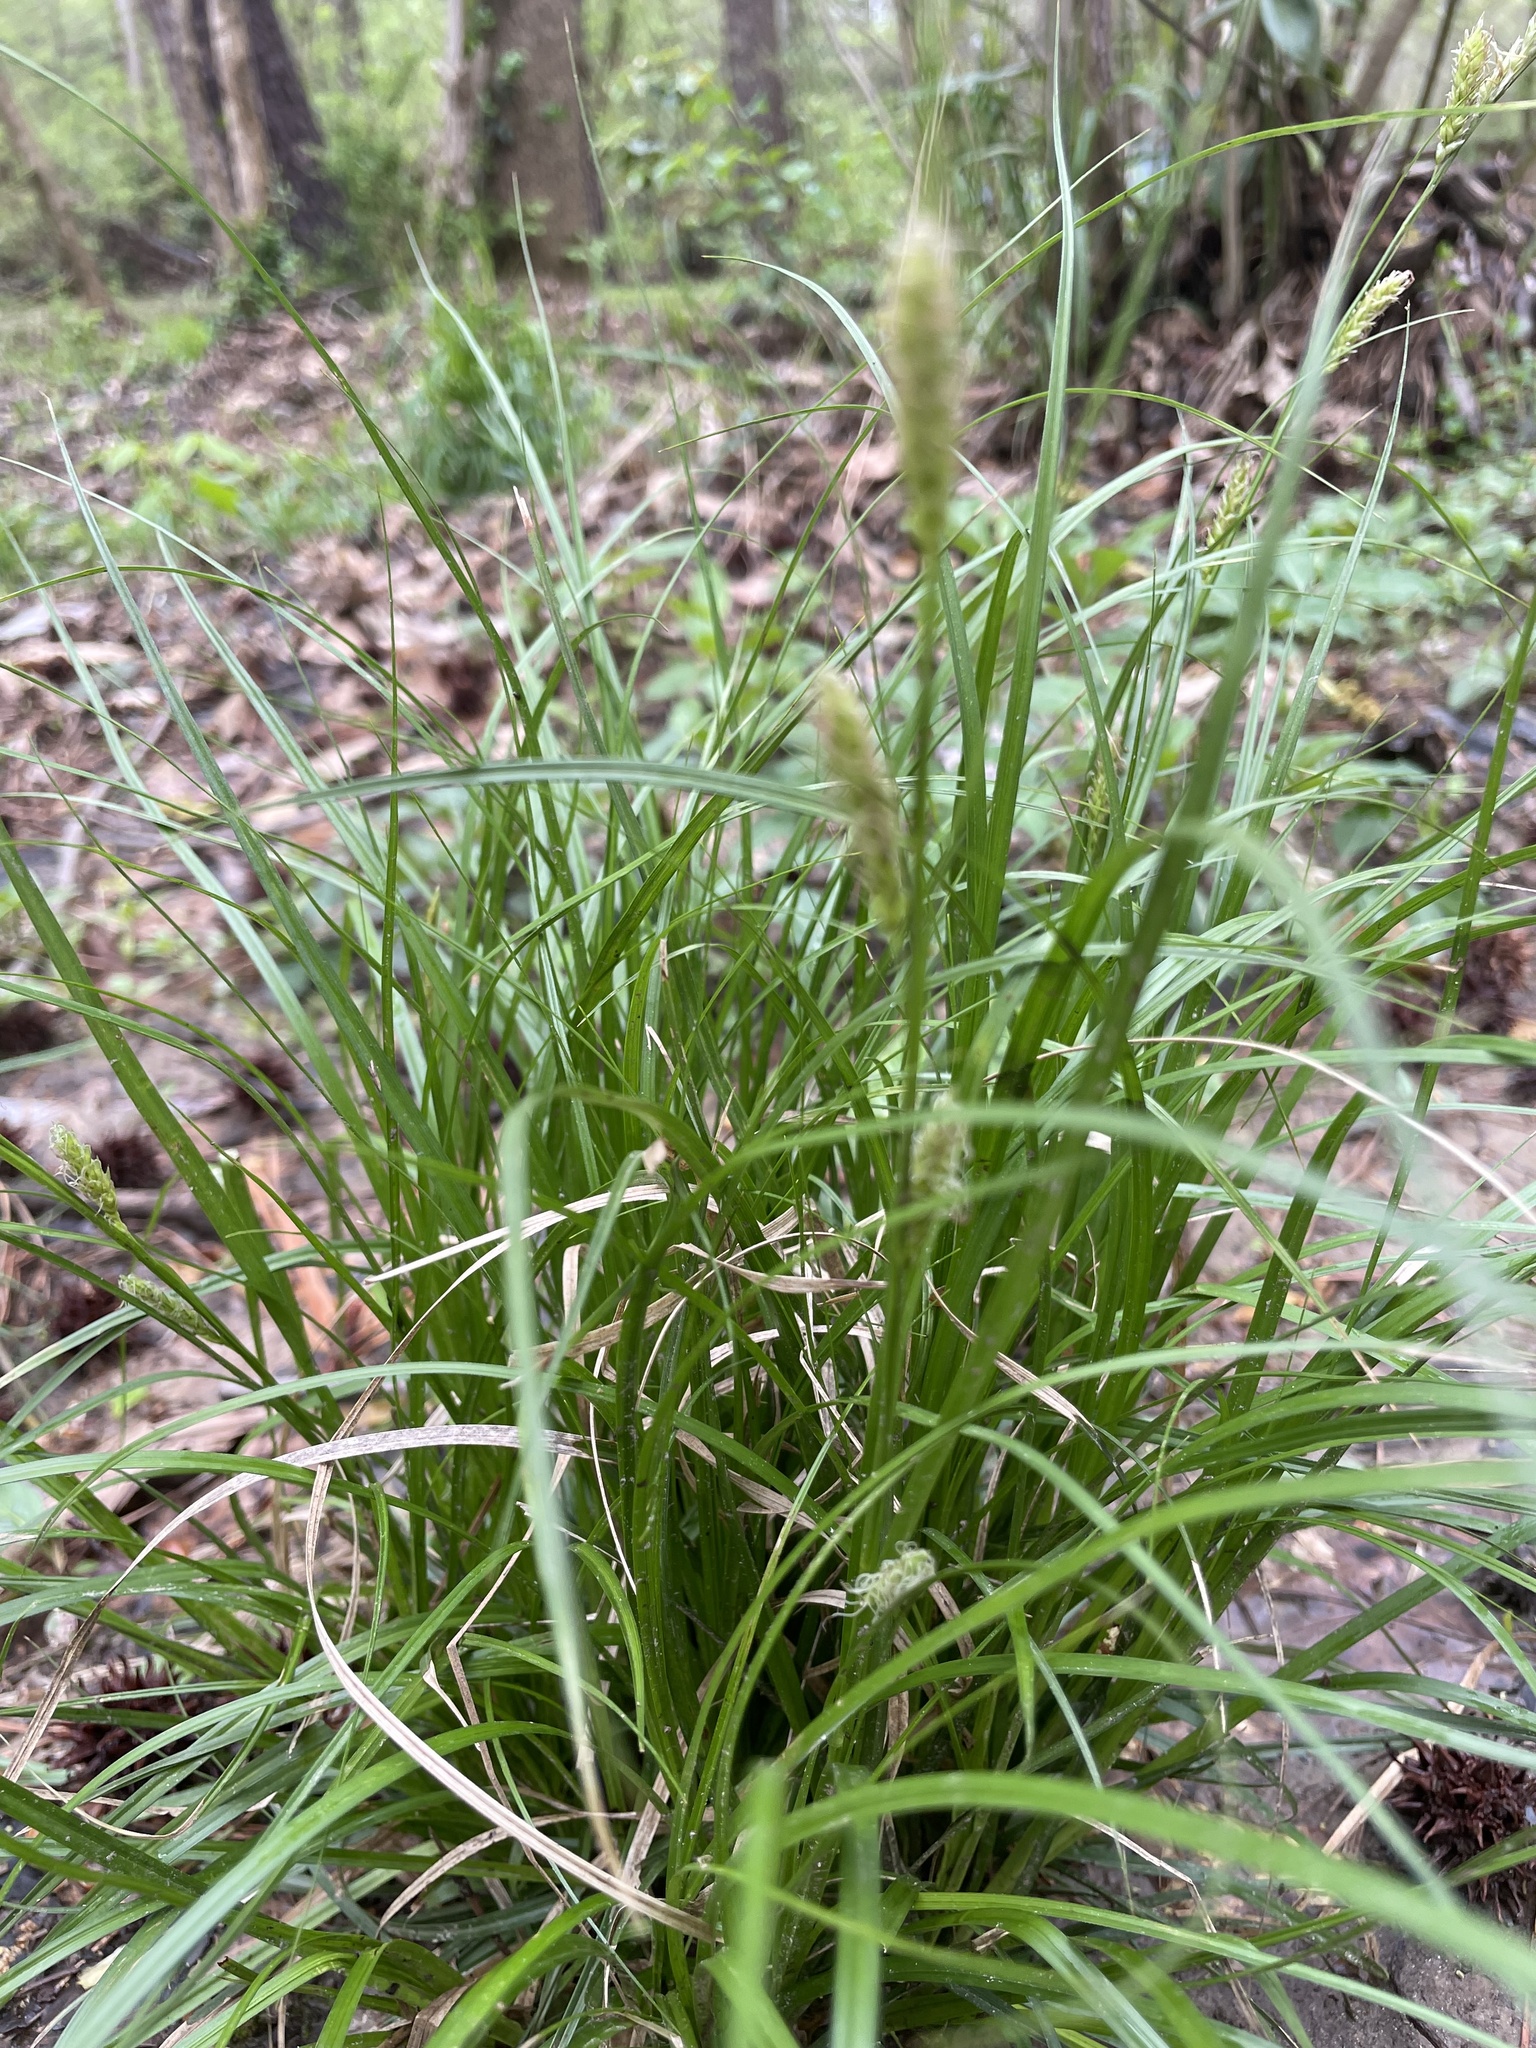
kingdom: Plantae
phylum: Tracheophyta
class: Liliopsida
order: Poales
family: Cyperaceae
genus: Carex
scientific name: Carex cherokeensis
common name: Cherokee sedge
